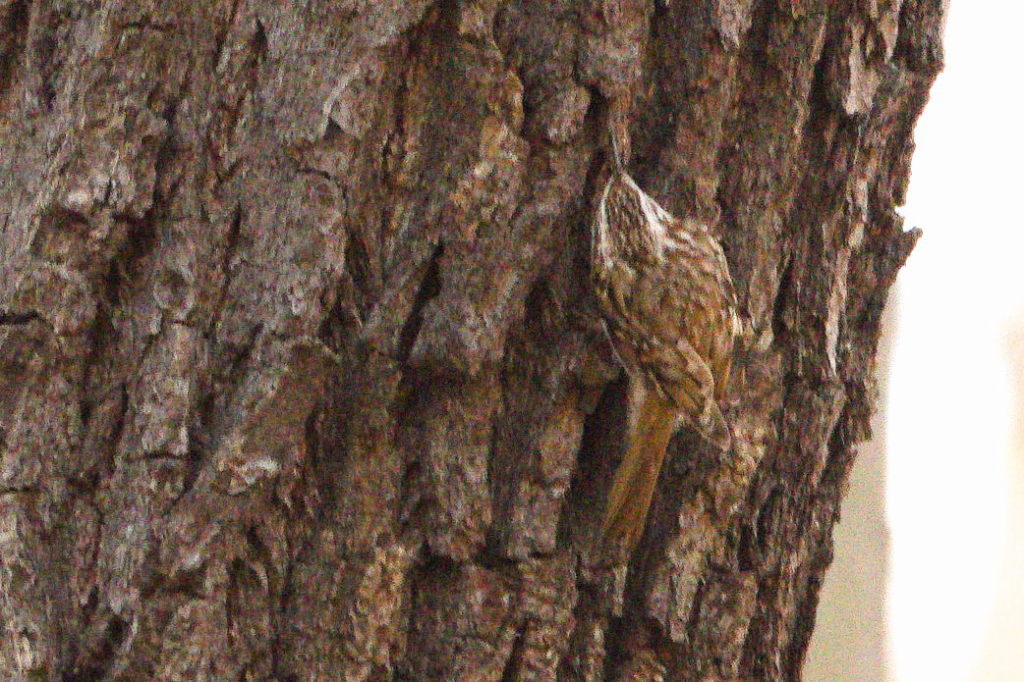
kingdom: Animalia
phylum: Chordata
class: Aves
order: Passeriformes
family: Certhiidae
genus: Certhia
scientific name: Certhia brachydactyla
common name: Short-toed treecreeper
